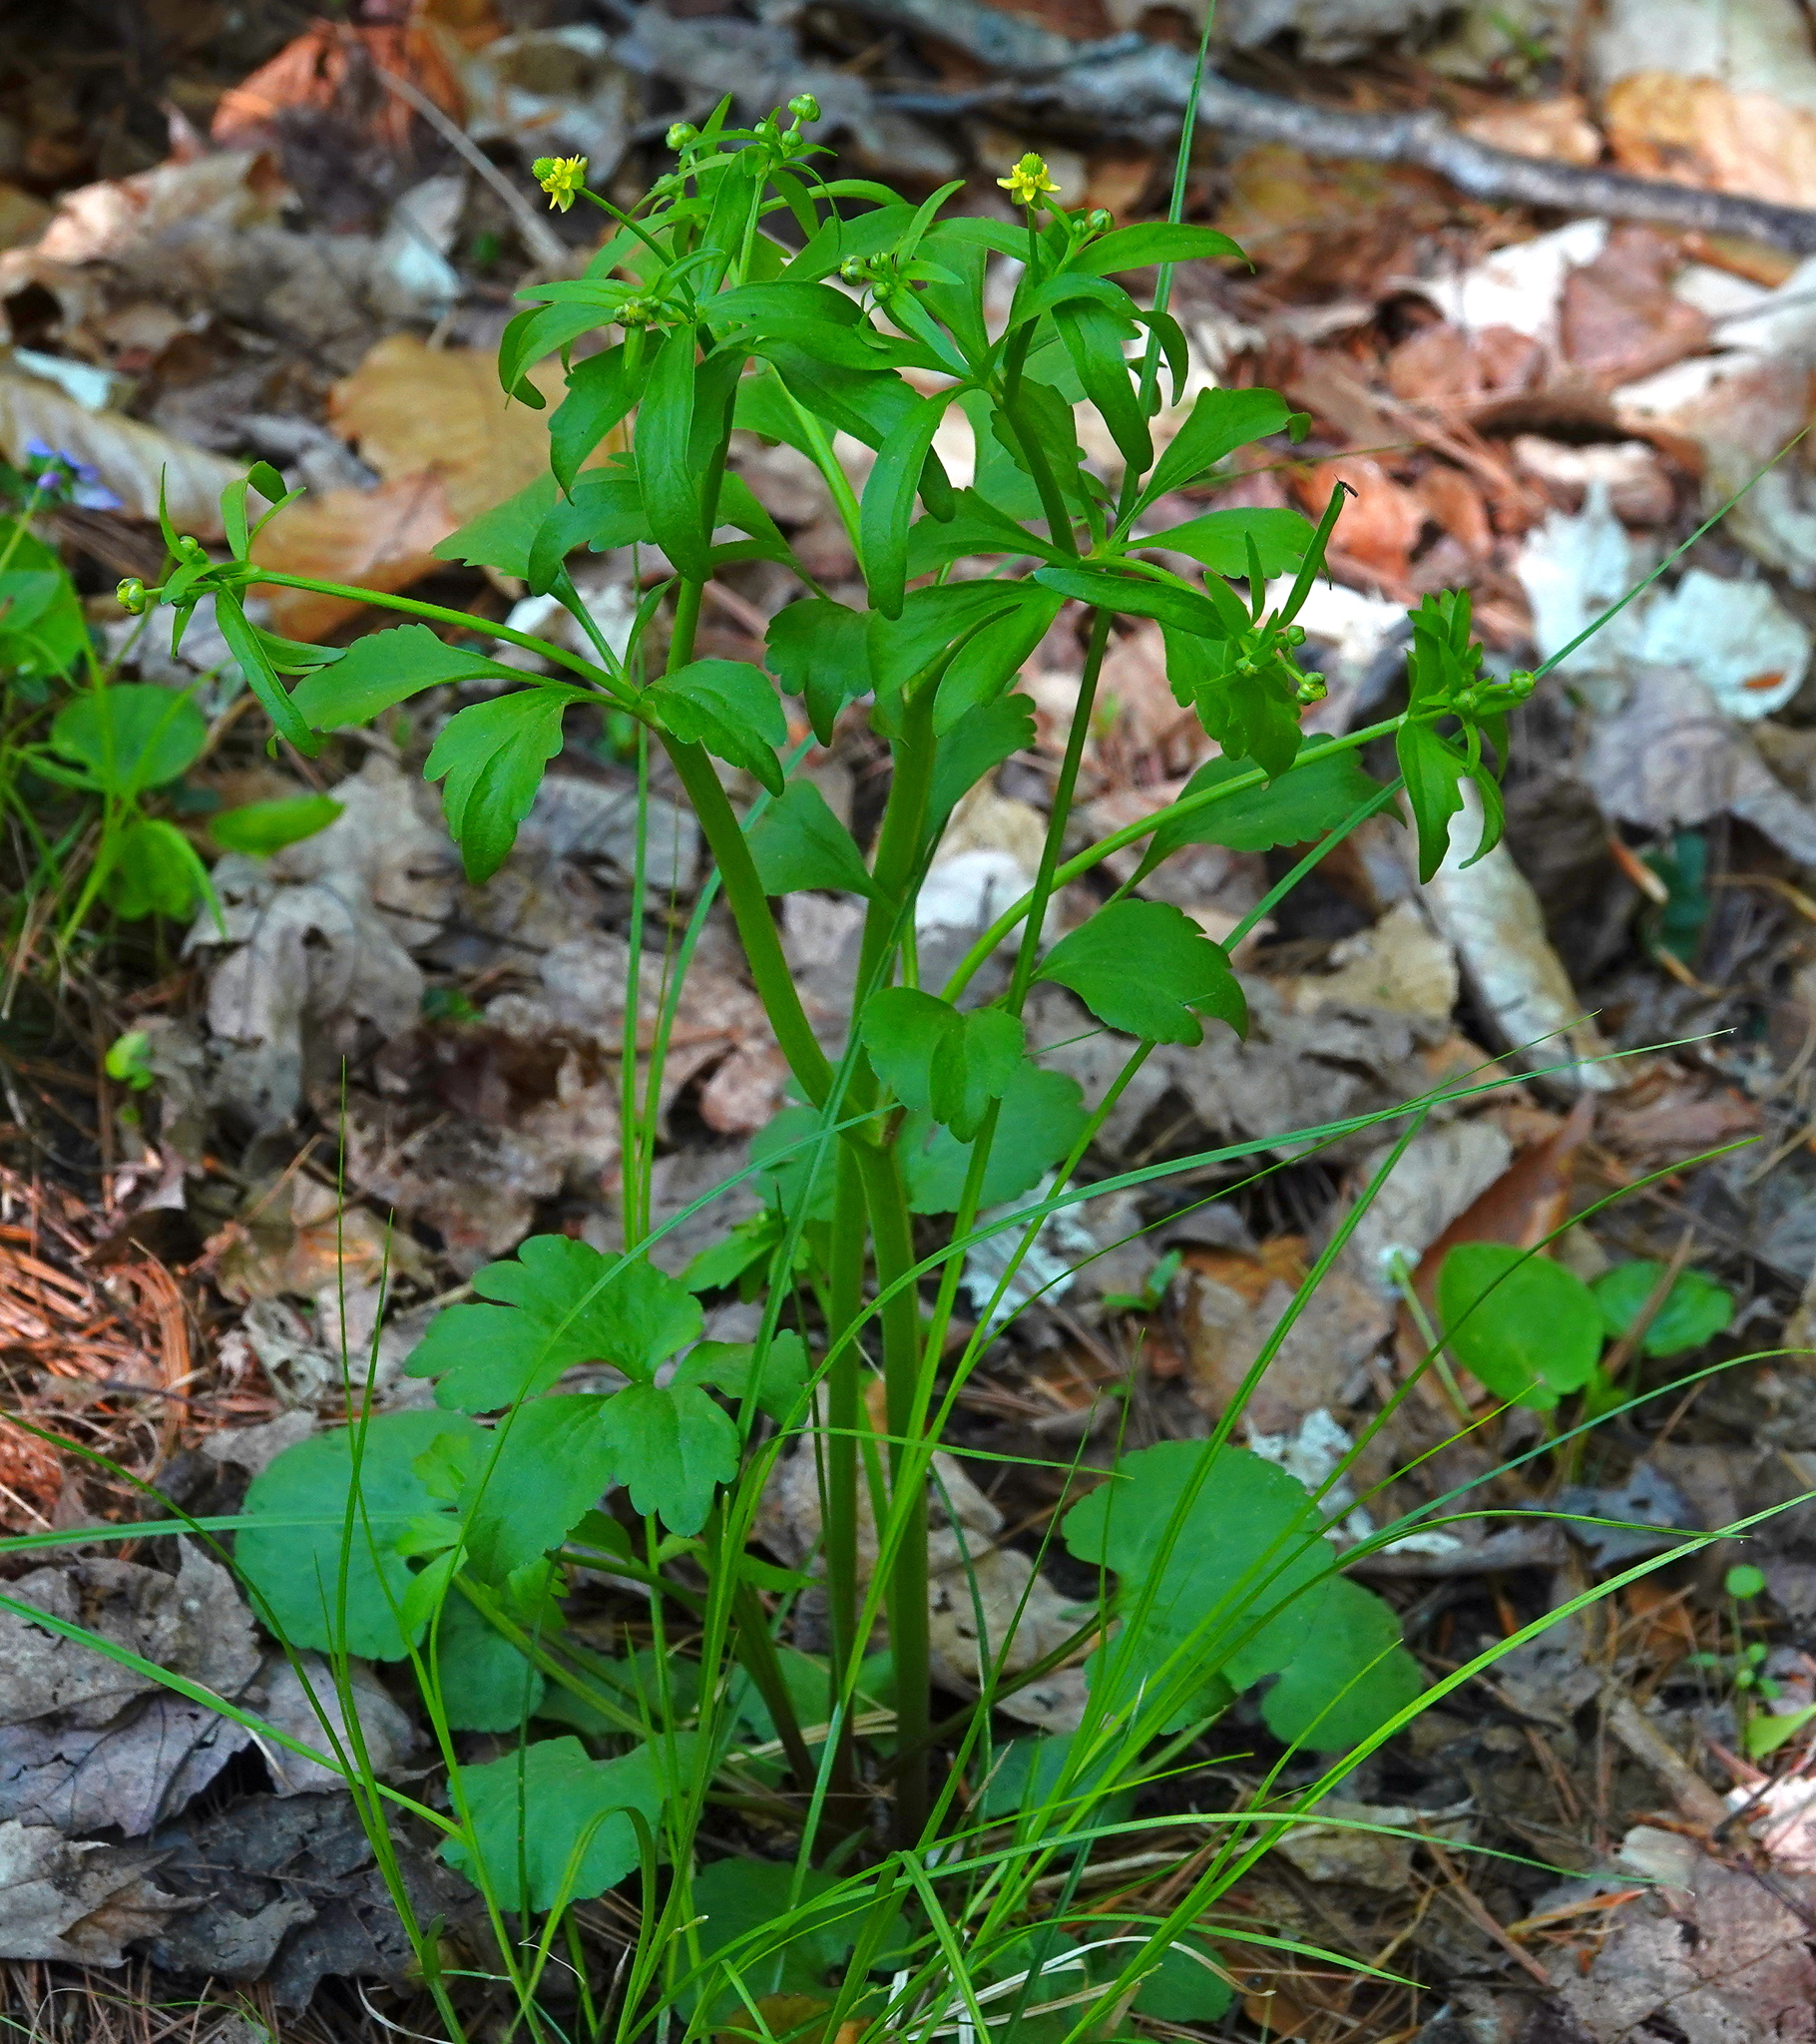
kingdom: Plantae
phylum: Tracheophyta
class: Magnoliopsida
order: Ranunculales
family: Ranunculaceae
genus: Ranunculus
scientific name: Ranunculus abortivus
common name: Early wood buttercup
